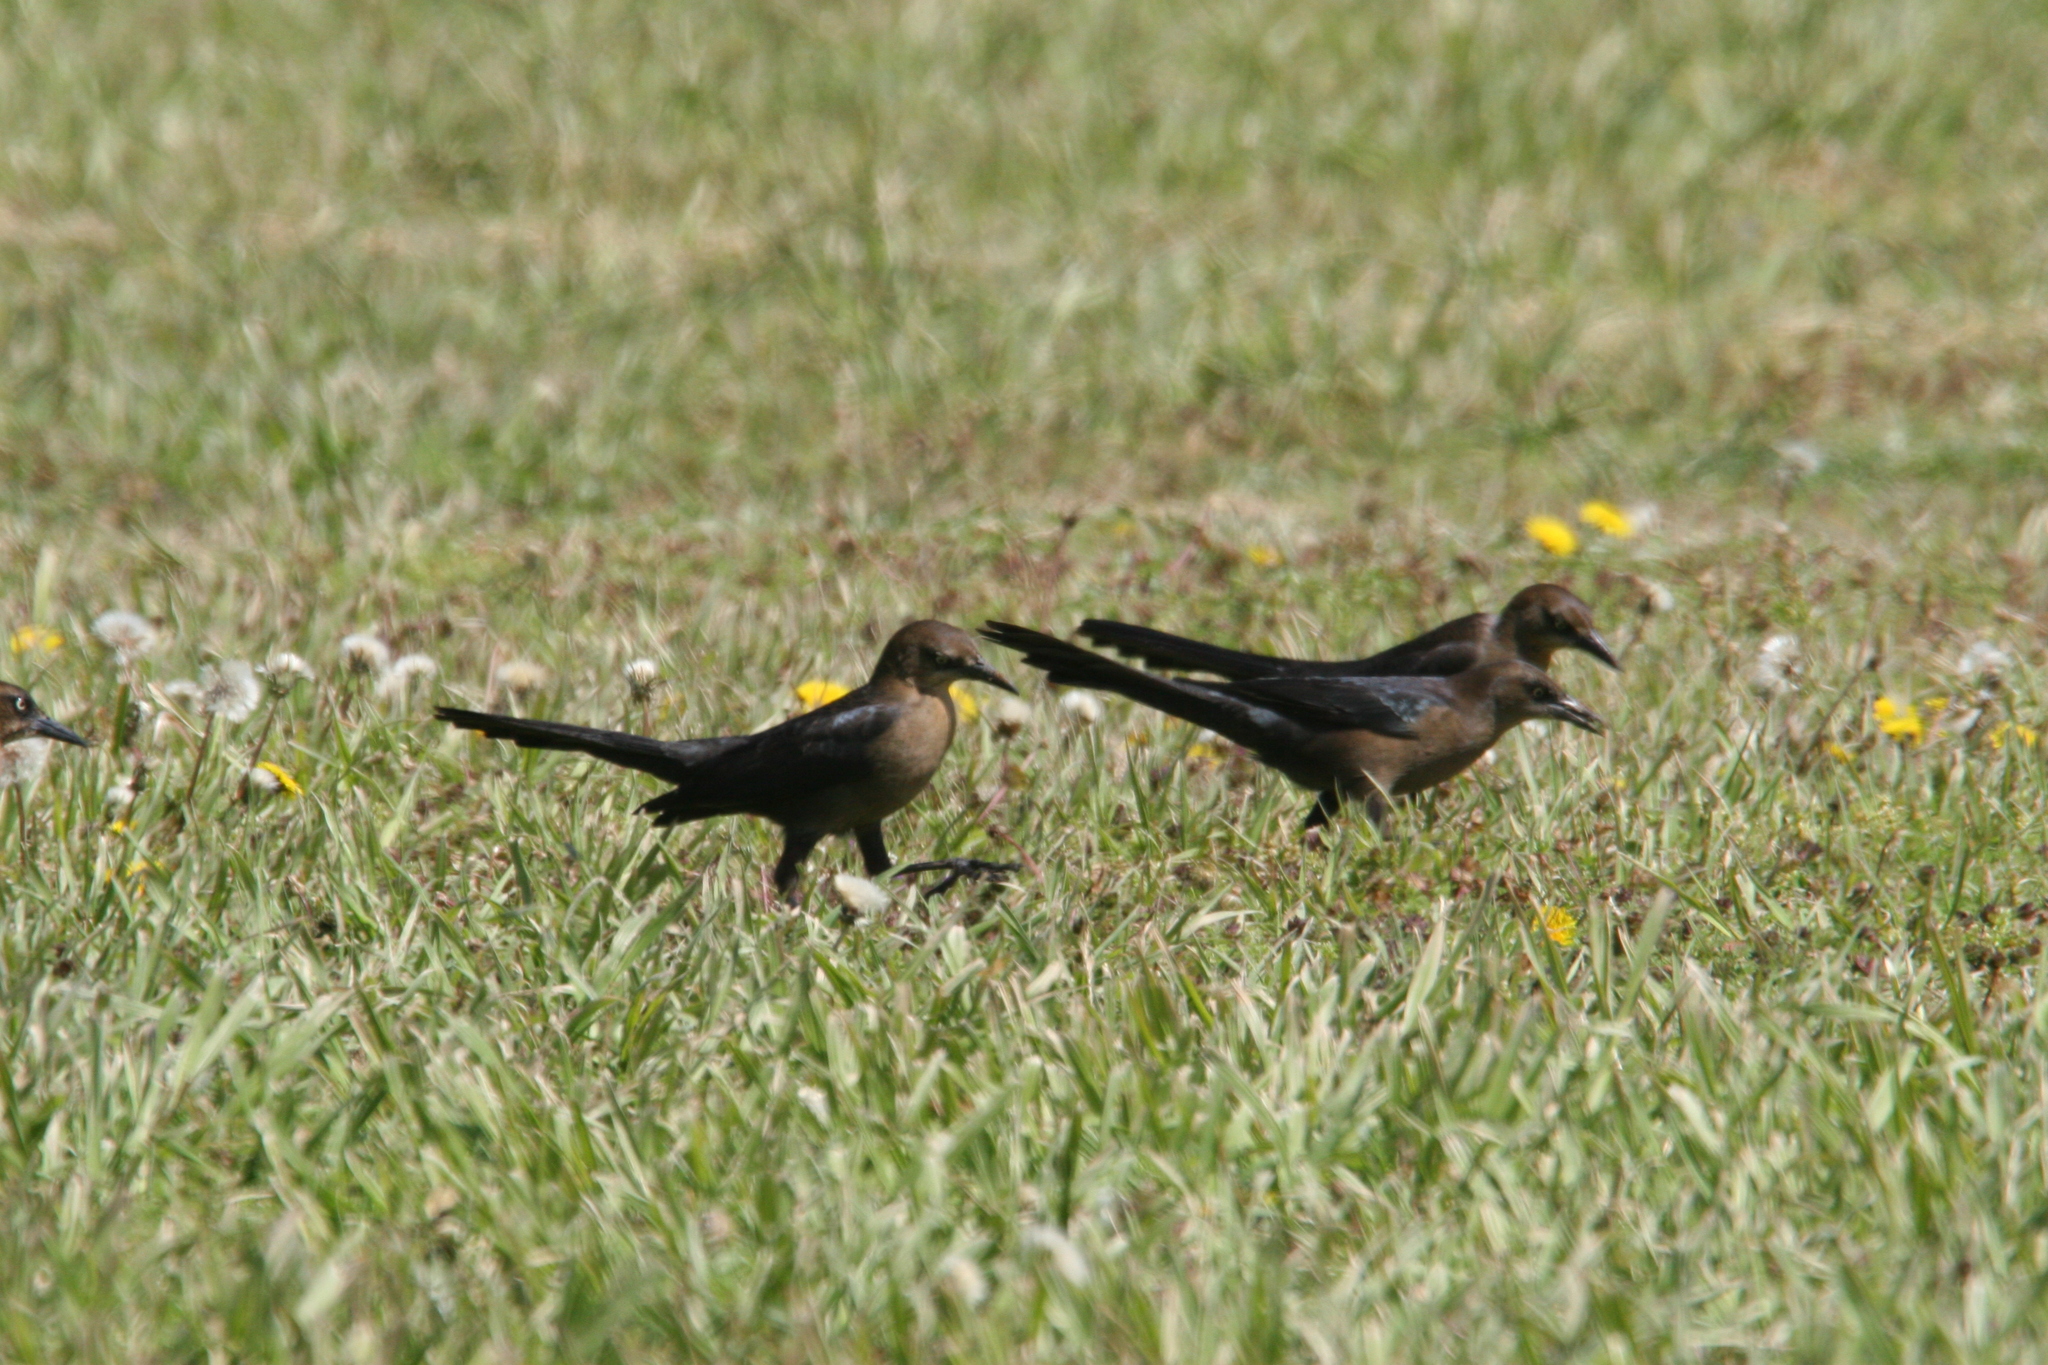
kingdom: Animalia
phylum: Chordata
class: Aves
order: Passeriformes
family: Icteridae
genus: Quiscalus
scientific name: Quiscalus mexicanus
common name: Great-tailed grackle
